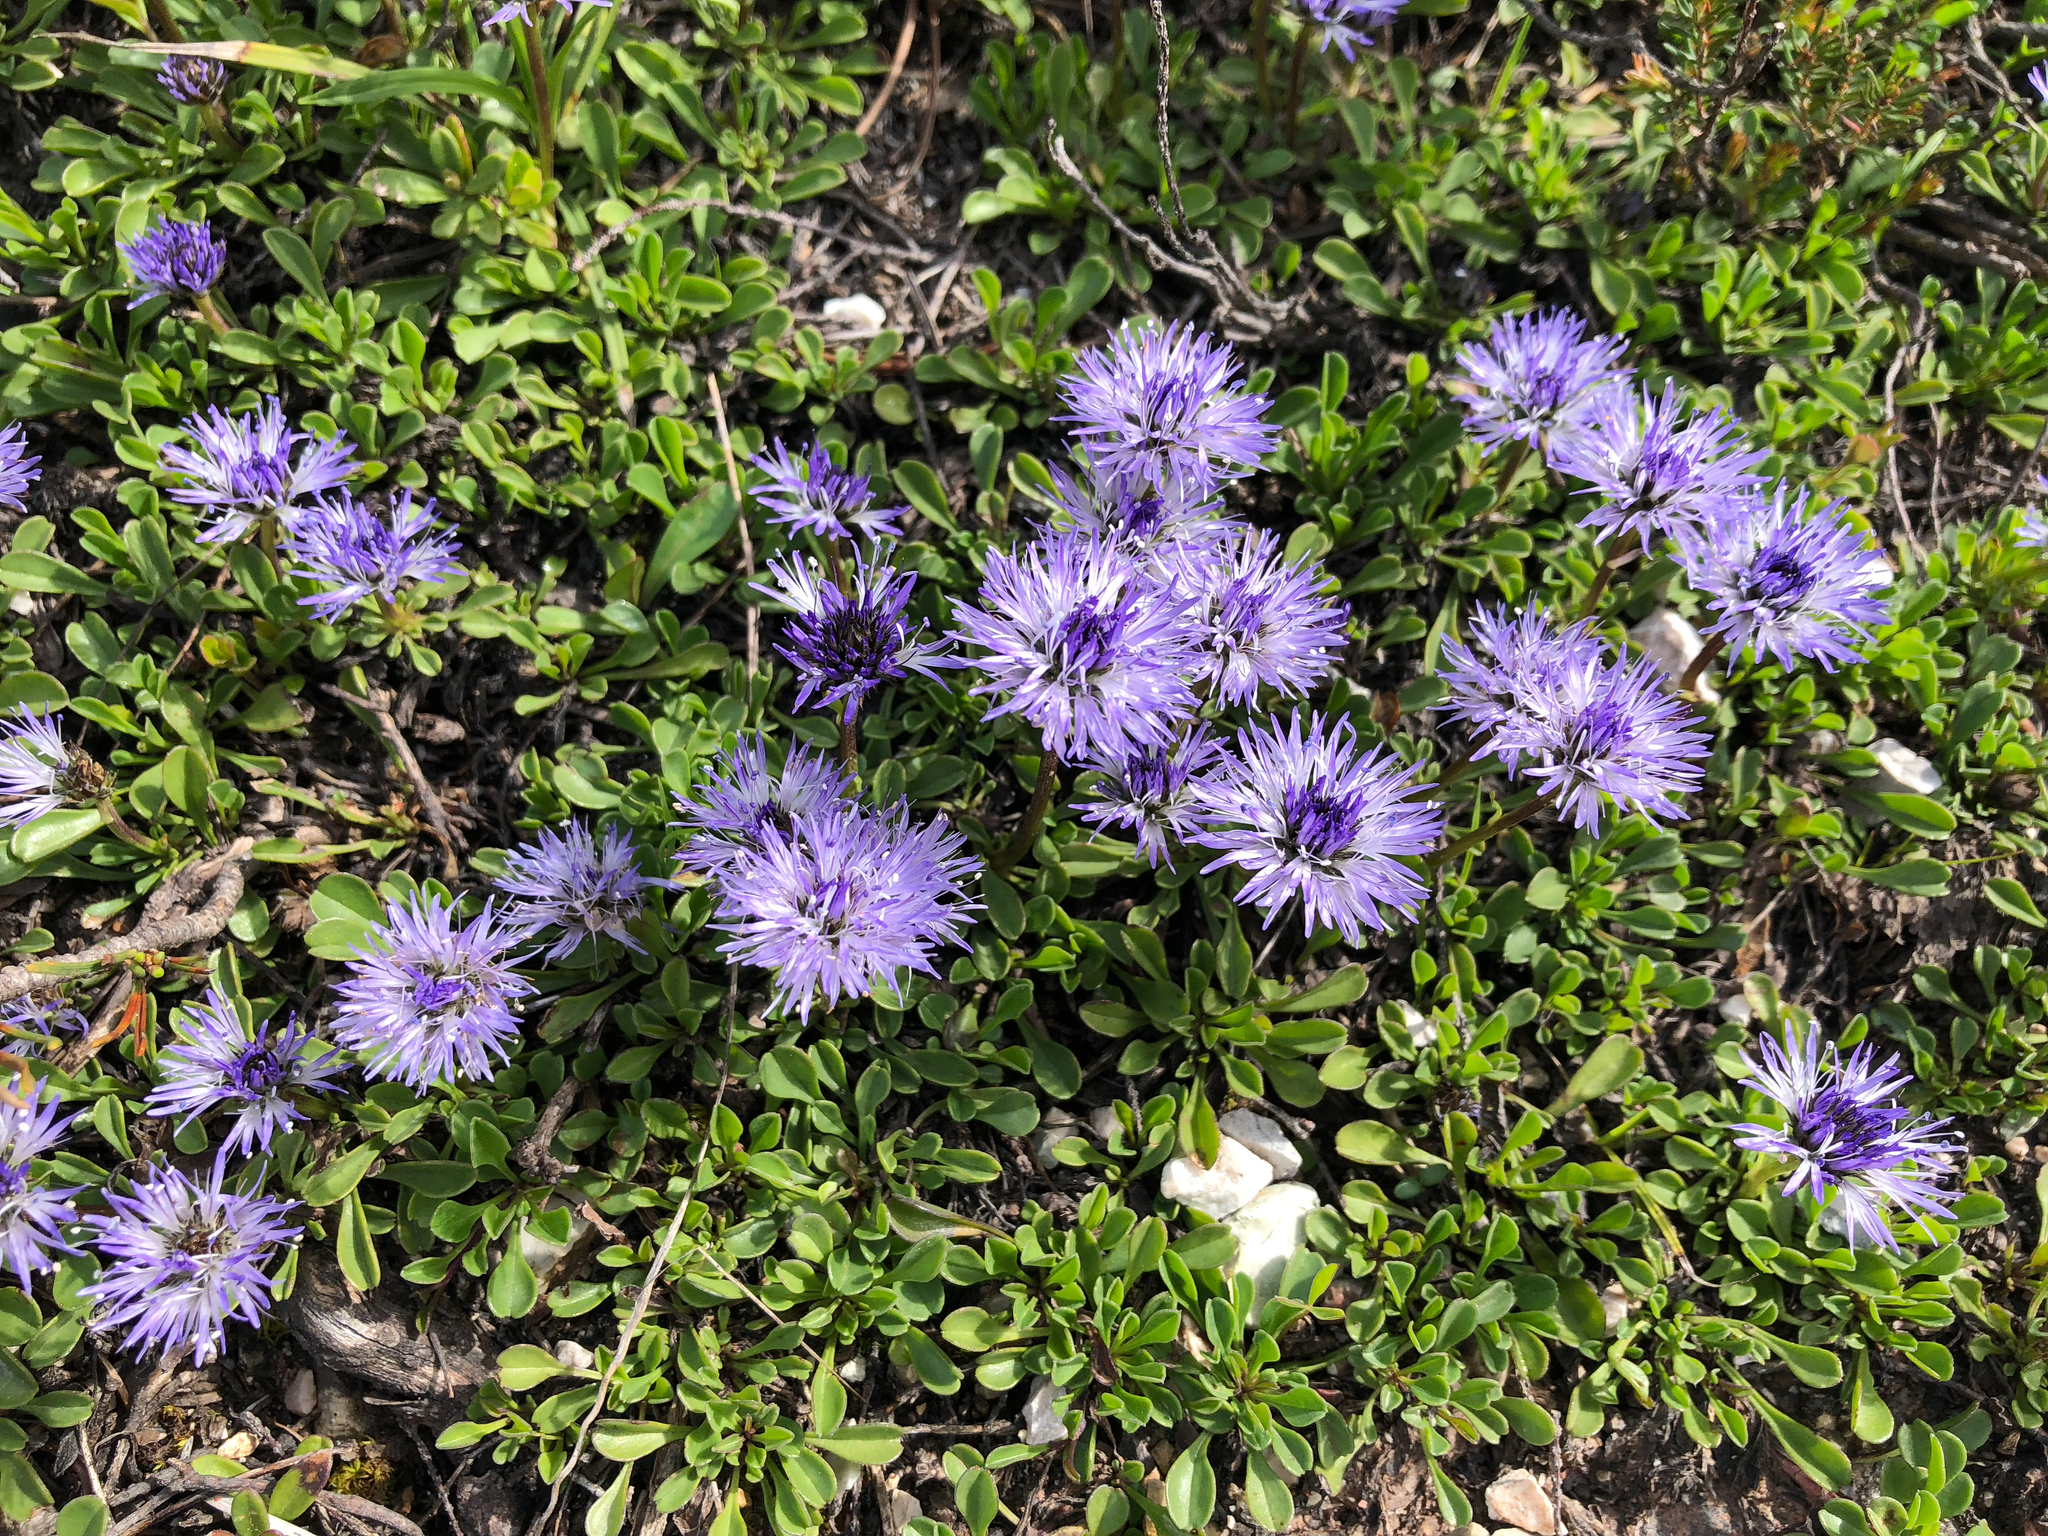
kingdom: Plantae
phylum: Tracheophyta
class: Magnoliopsida
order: Lamiales
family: Plantaginaceae
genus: Globularia
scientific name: Globularia cordifolia
